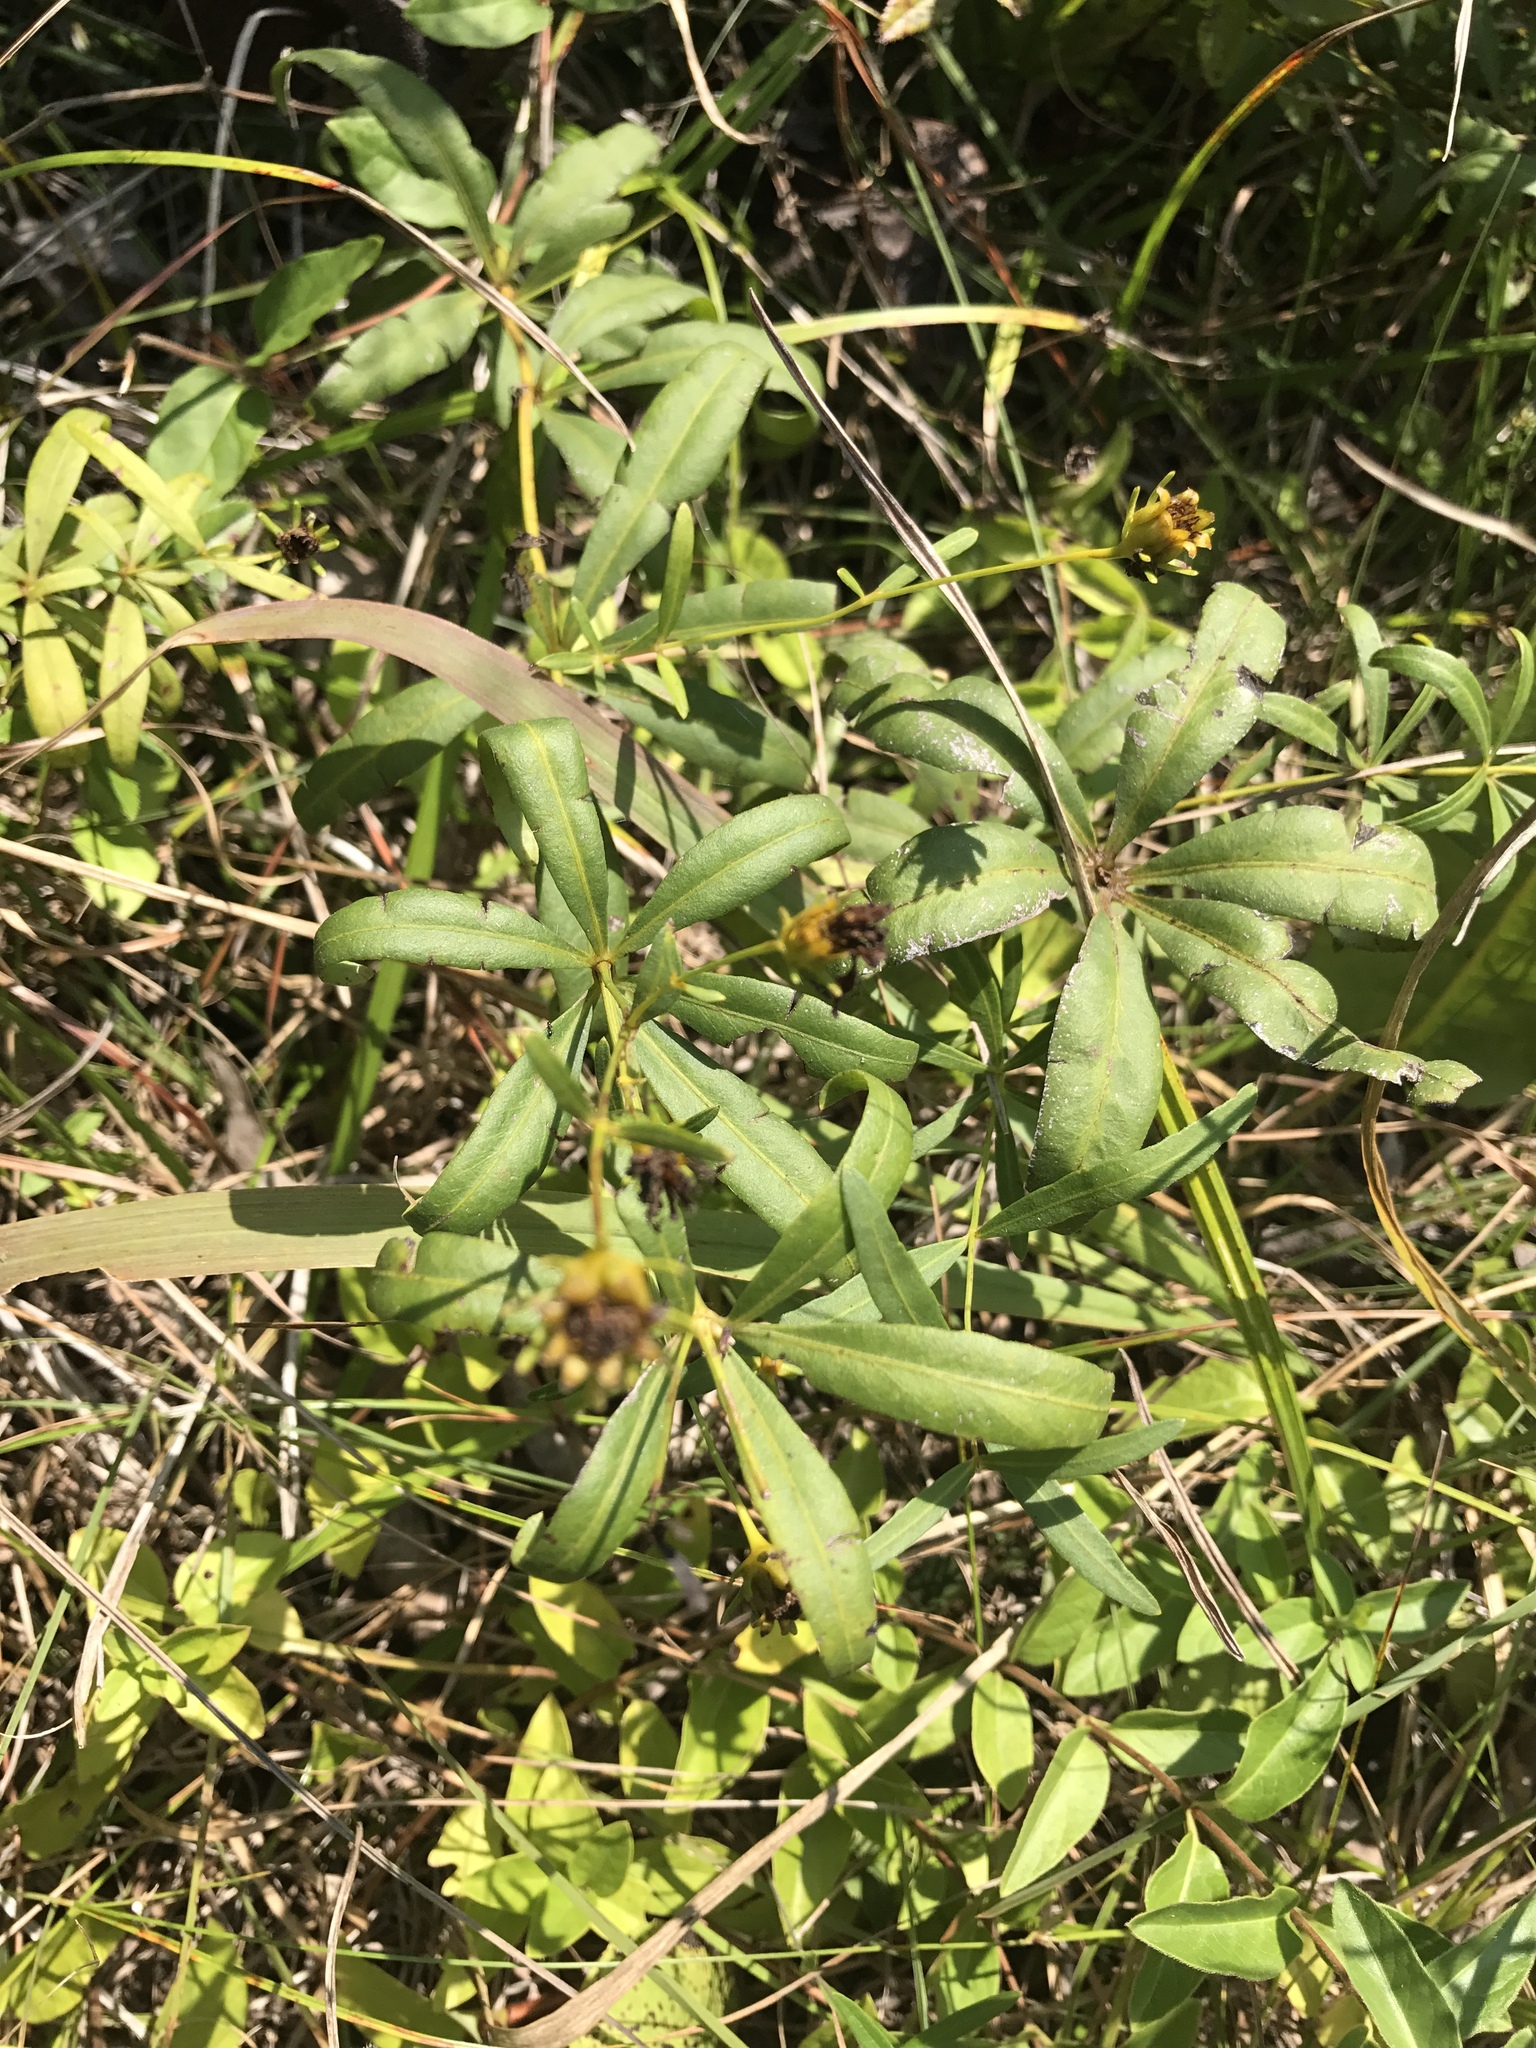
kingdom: Plantae
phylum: Tracheophyta
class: Magnoliopsida
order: Asterales
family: Asteraceae
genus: Coreopsis
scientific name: Coreopsis major
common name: Forest tickseed
